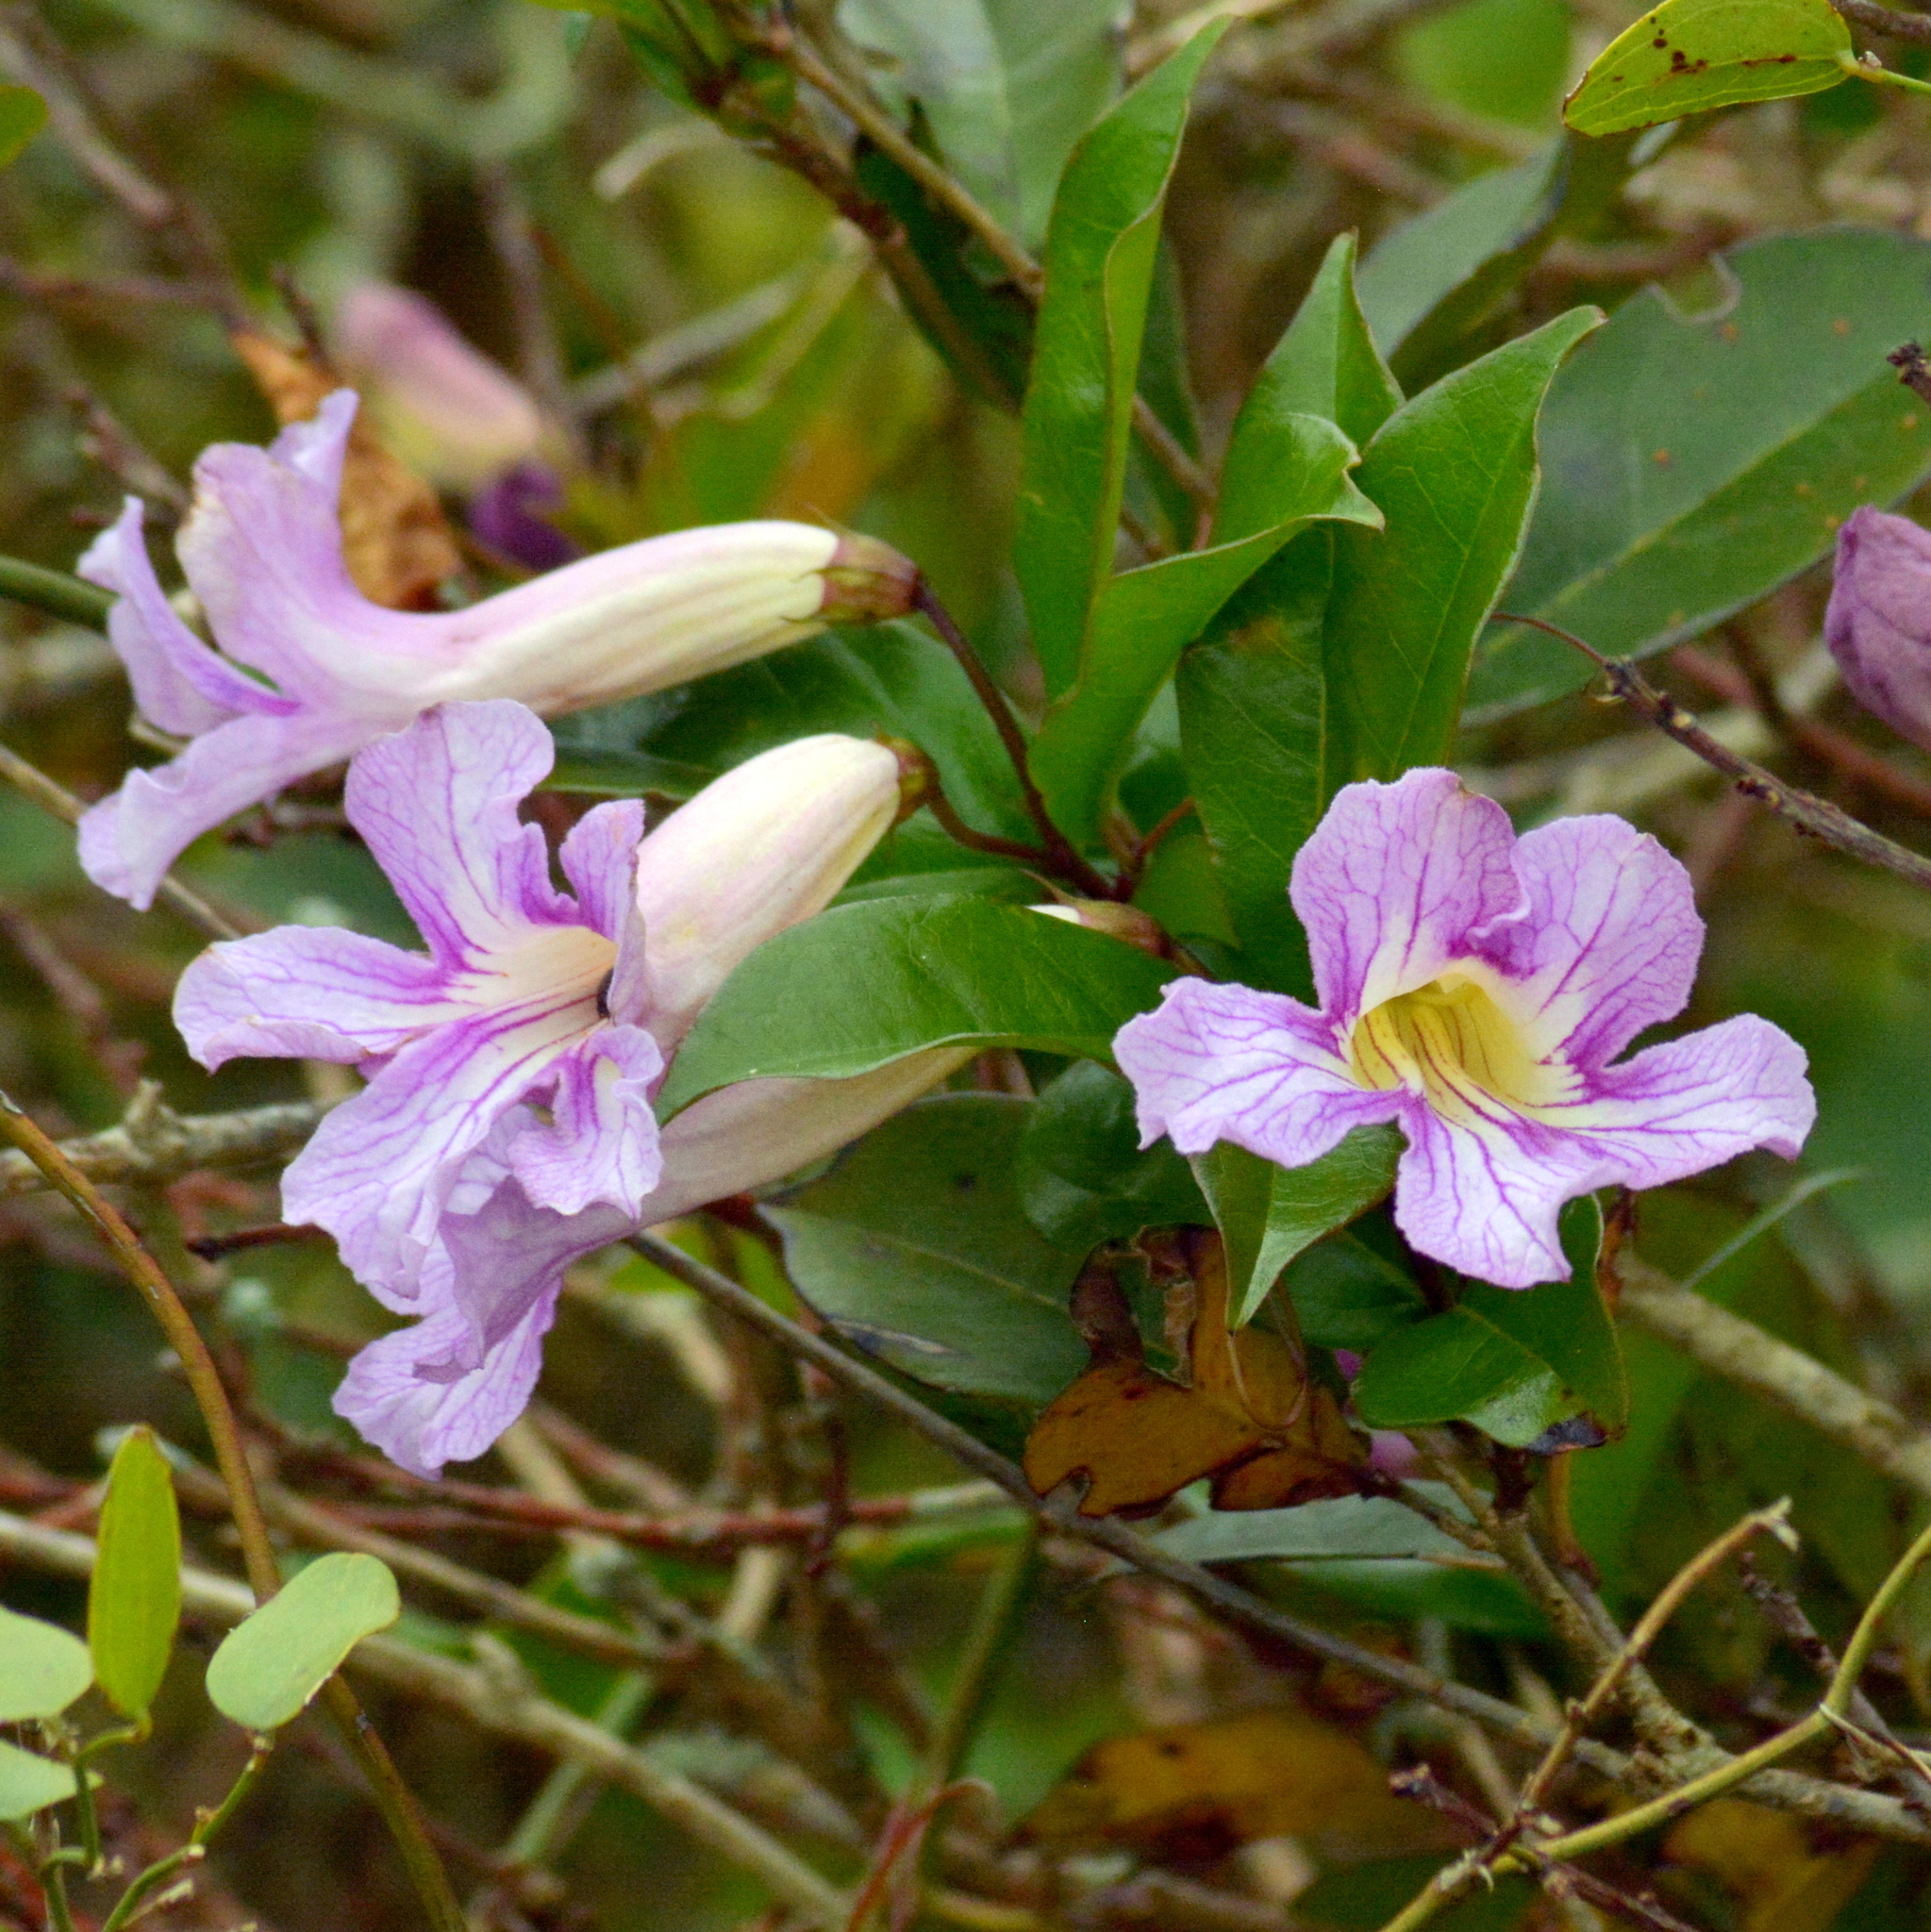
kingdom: Plantae
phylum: Tracheophyta
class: Magnoliopsida
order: Lamiales
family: Bignoniaceae
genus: Bignonia
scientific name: Bignonia callistegioides
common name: Argentine trumpetvine
